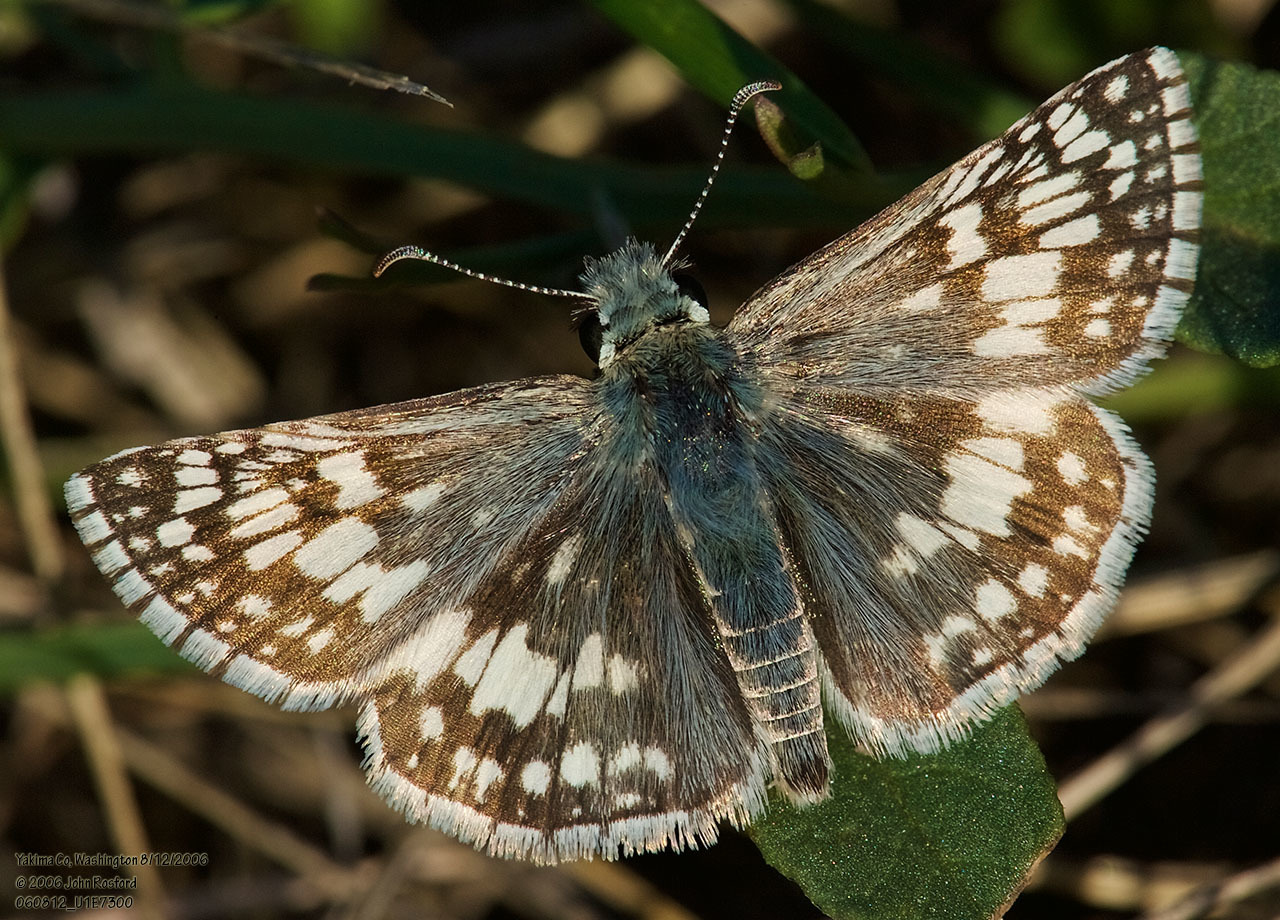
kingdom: Animalia
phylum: Arthropoda
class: Insecta
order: Lepidoptera
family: Hesperiidae
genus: Burnsius
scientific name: Burnsius communis
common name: Common checkered-skipper
